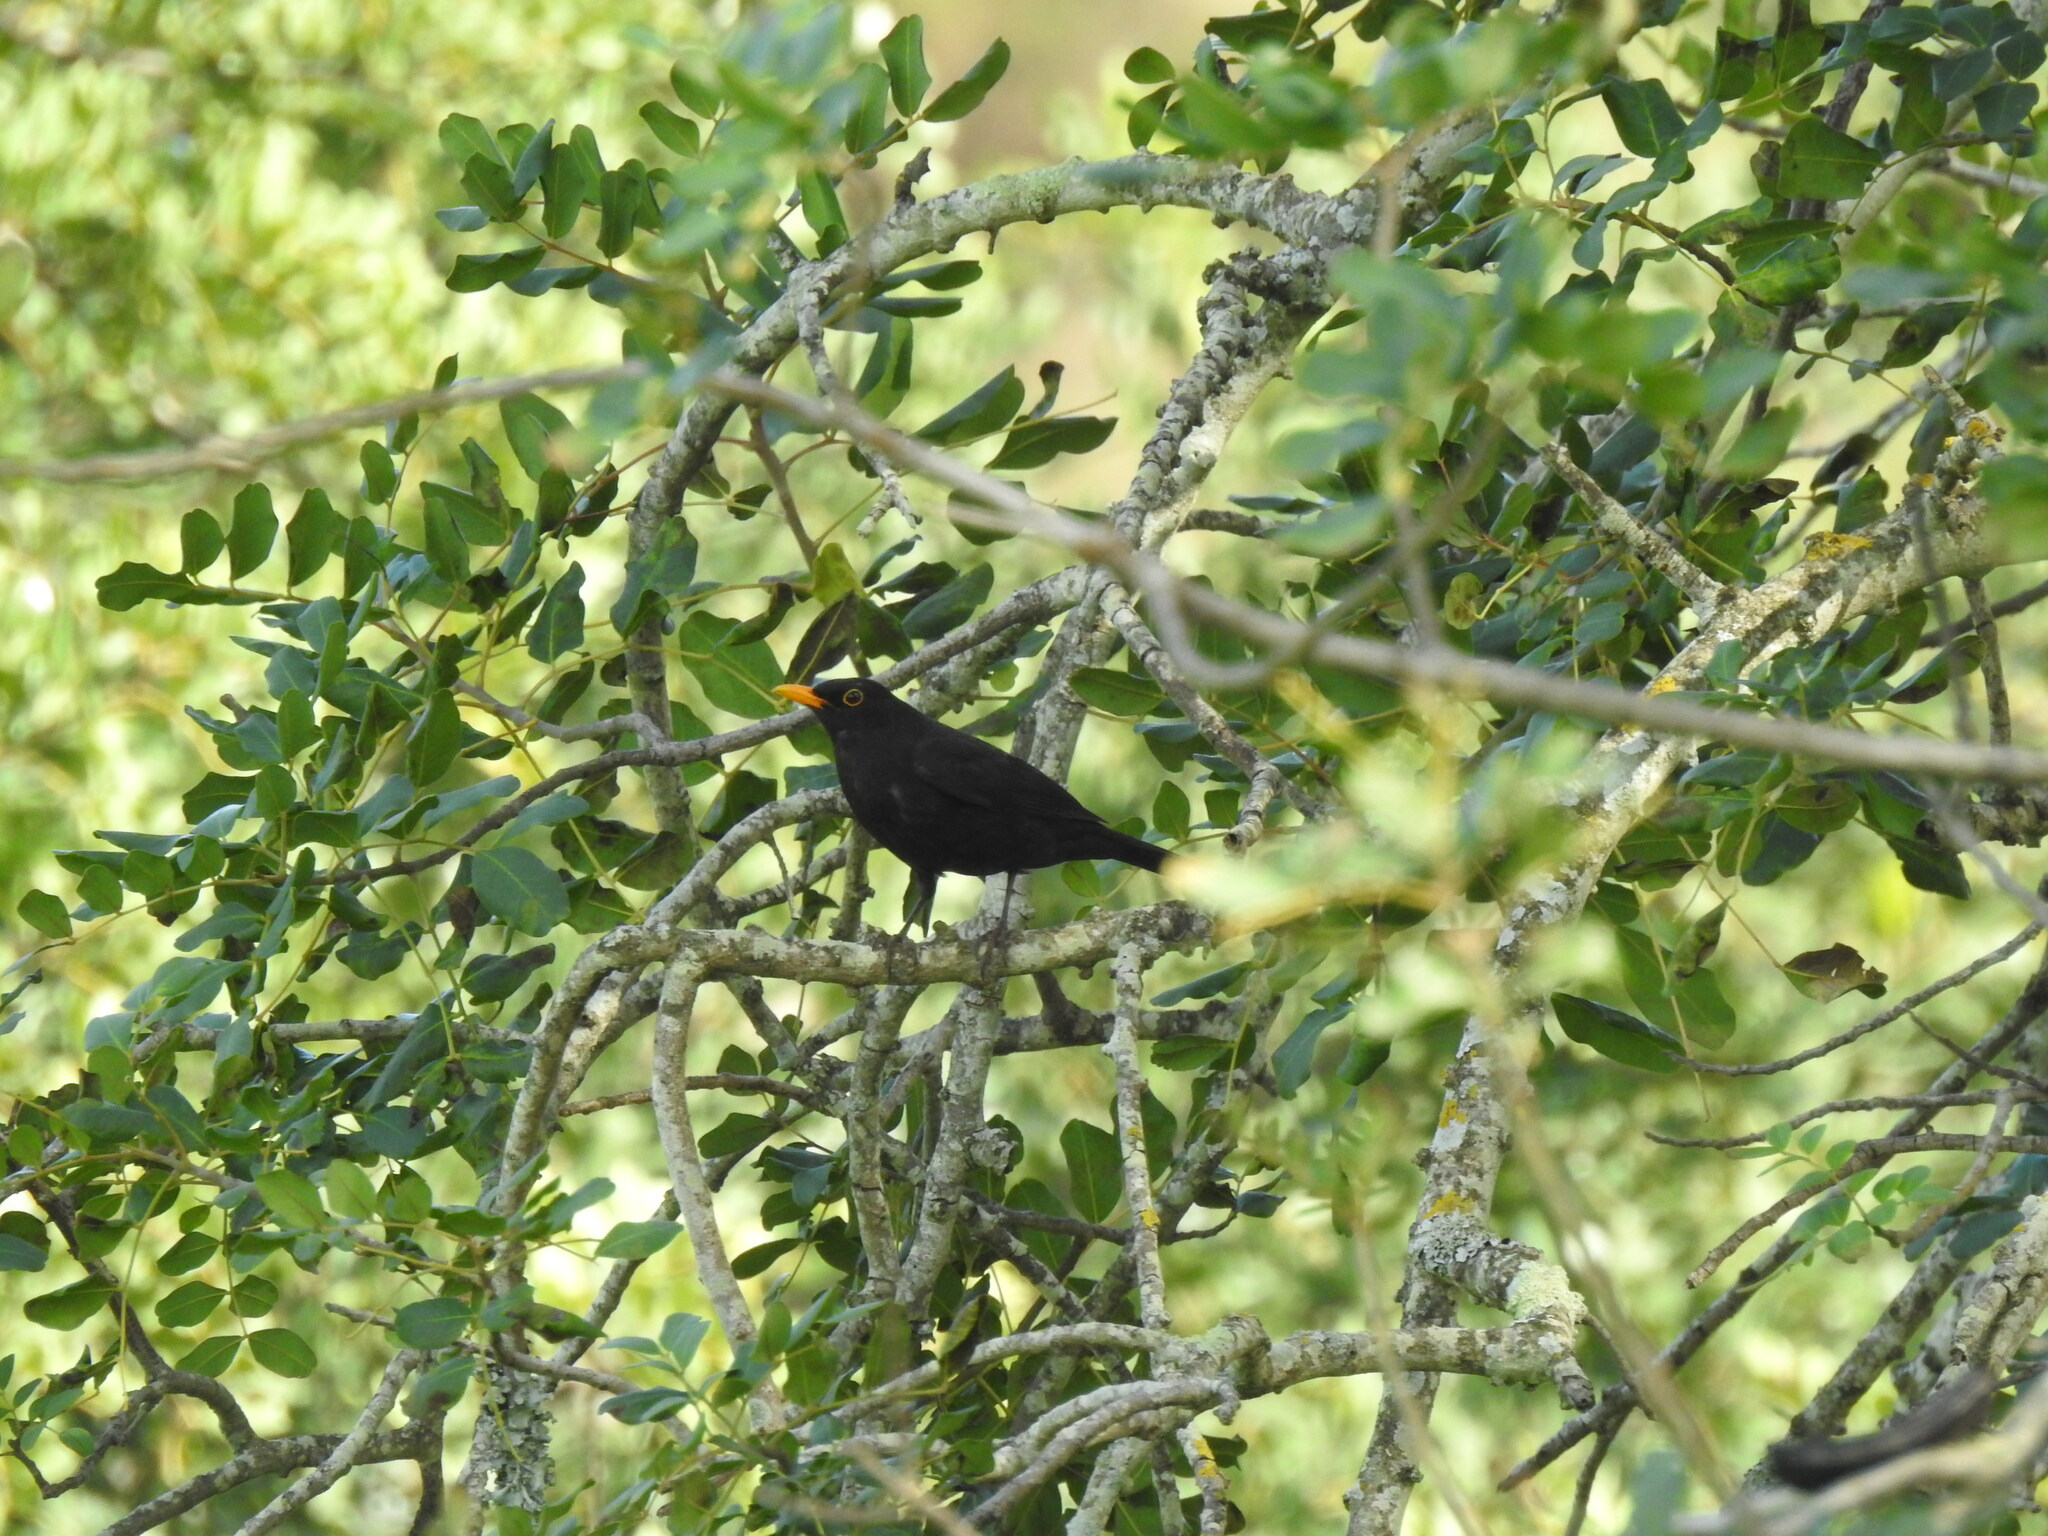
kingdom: Animalia
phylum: Chordata
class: Aves
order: Passeriformes
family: Turdidae
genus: Turdus
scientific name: Turdus merula
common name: Common blackbird
